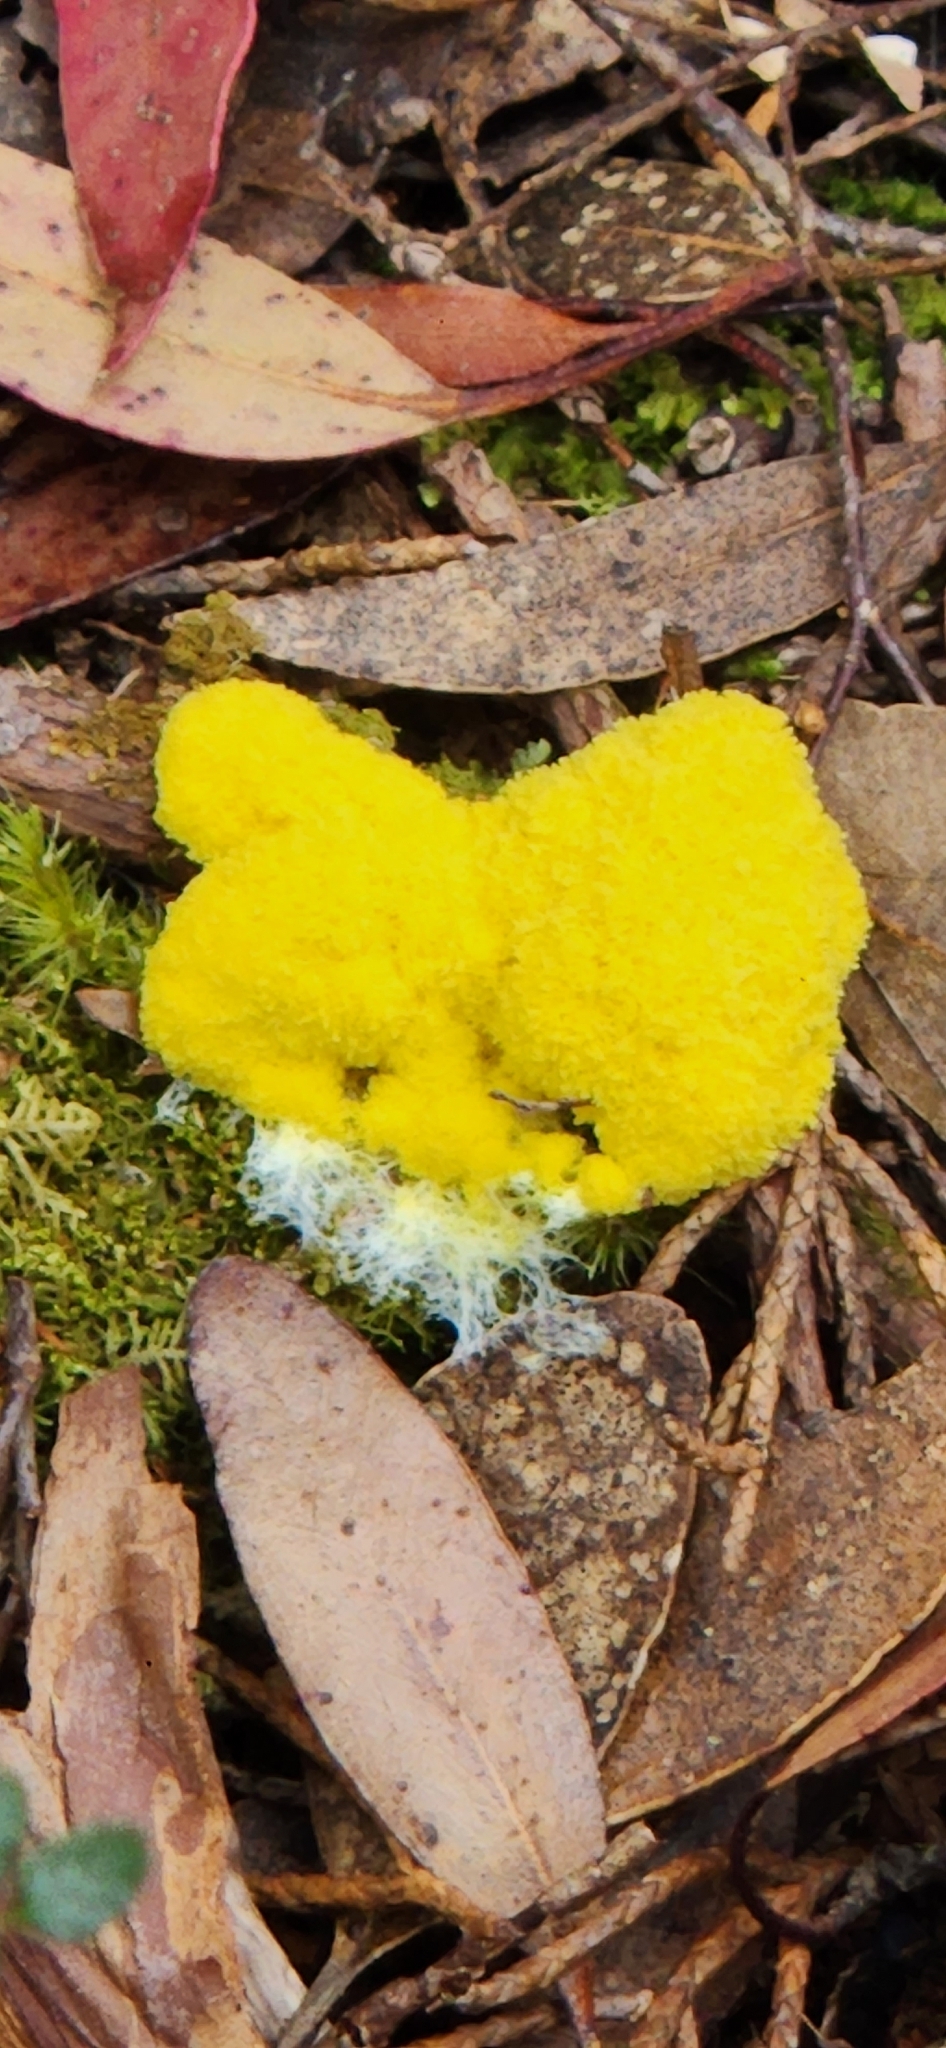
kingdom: Protozoa
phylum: Mycetozoa
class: Myxomycetes
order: Physarales
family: Physaraceae
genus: Fuligo
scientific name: Fuligo septica
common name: Dog vomit slime mold
